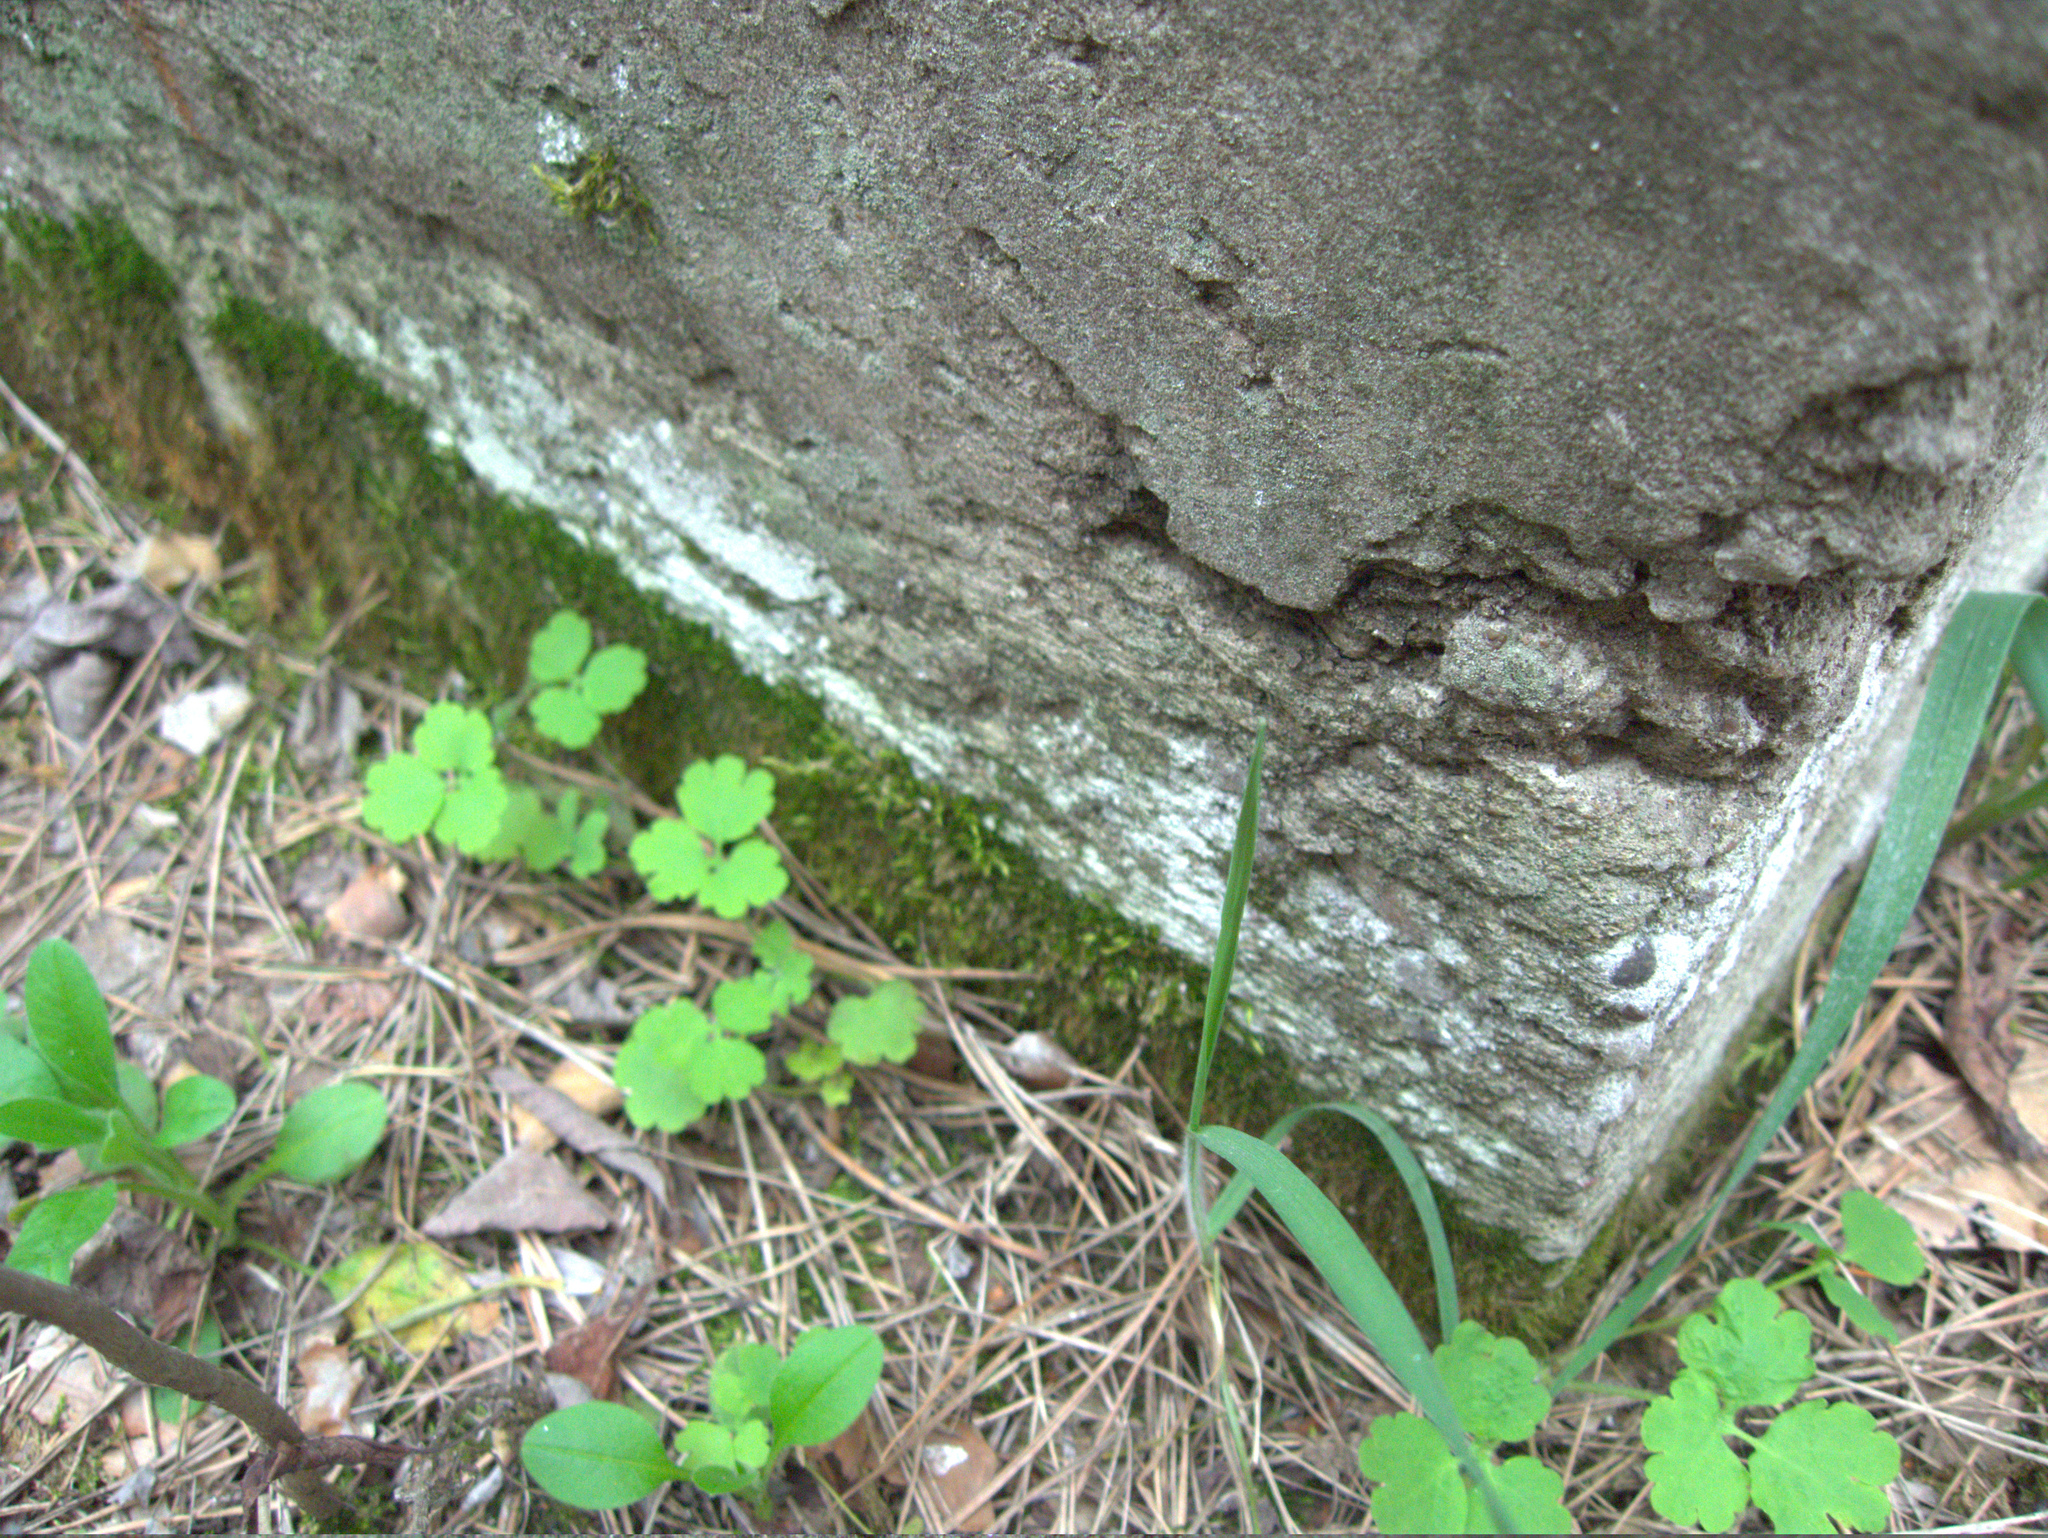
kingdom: Plantae
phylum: Tracheophyta
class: Magnoliopsida
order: Ranunculales
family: Papaveraceae
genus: Chelidonium
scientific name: Chelidonium majus
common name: Greater celandine
